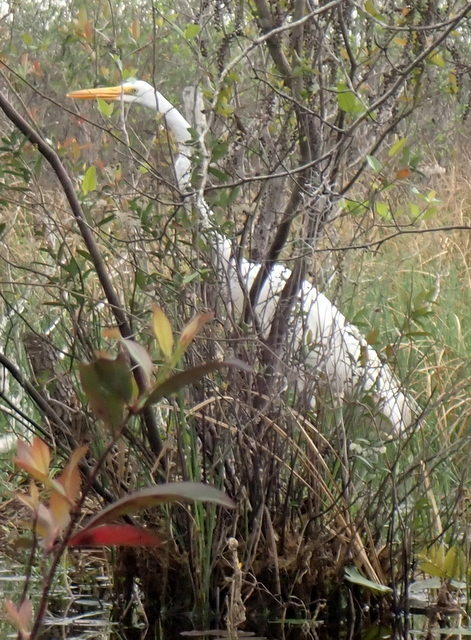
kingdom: Animalia
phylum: Chordata
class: Aves
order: Pelecaniformes
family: Ardeidae
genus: Ardea
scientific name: Ardea alba
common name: Great egret
